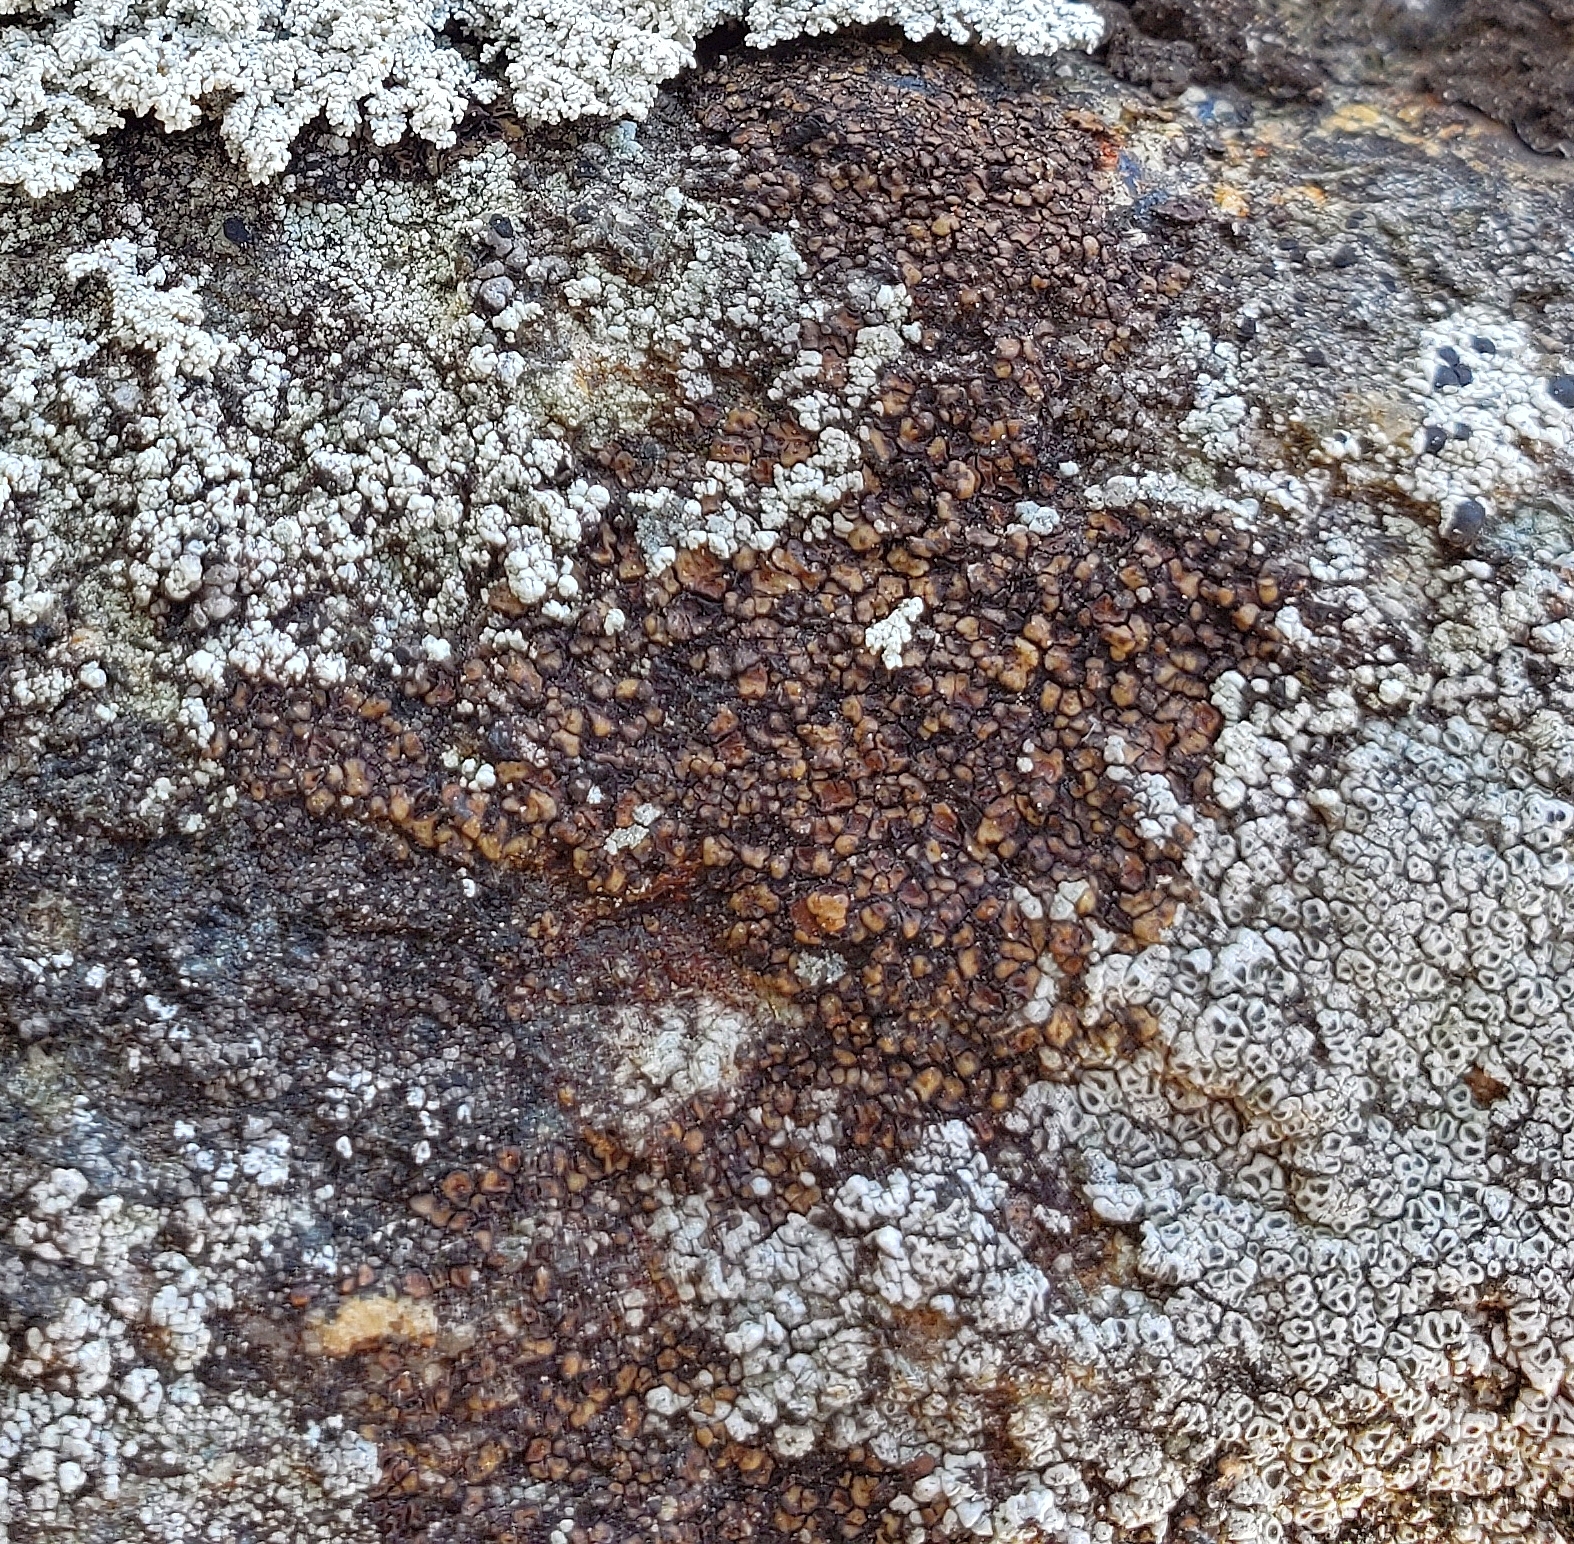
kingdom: Fungi
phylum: Ascomycota
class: Lecanoromycetes
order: Acarosporales
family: Acarosporaceae
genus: Acarospora
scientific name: Acarospora fuscata
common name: Brown cobblestone lichen
